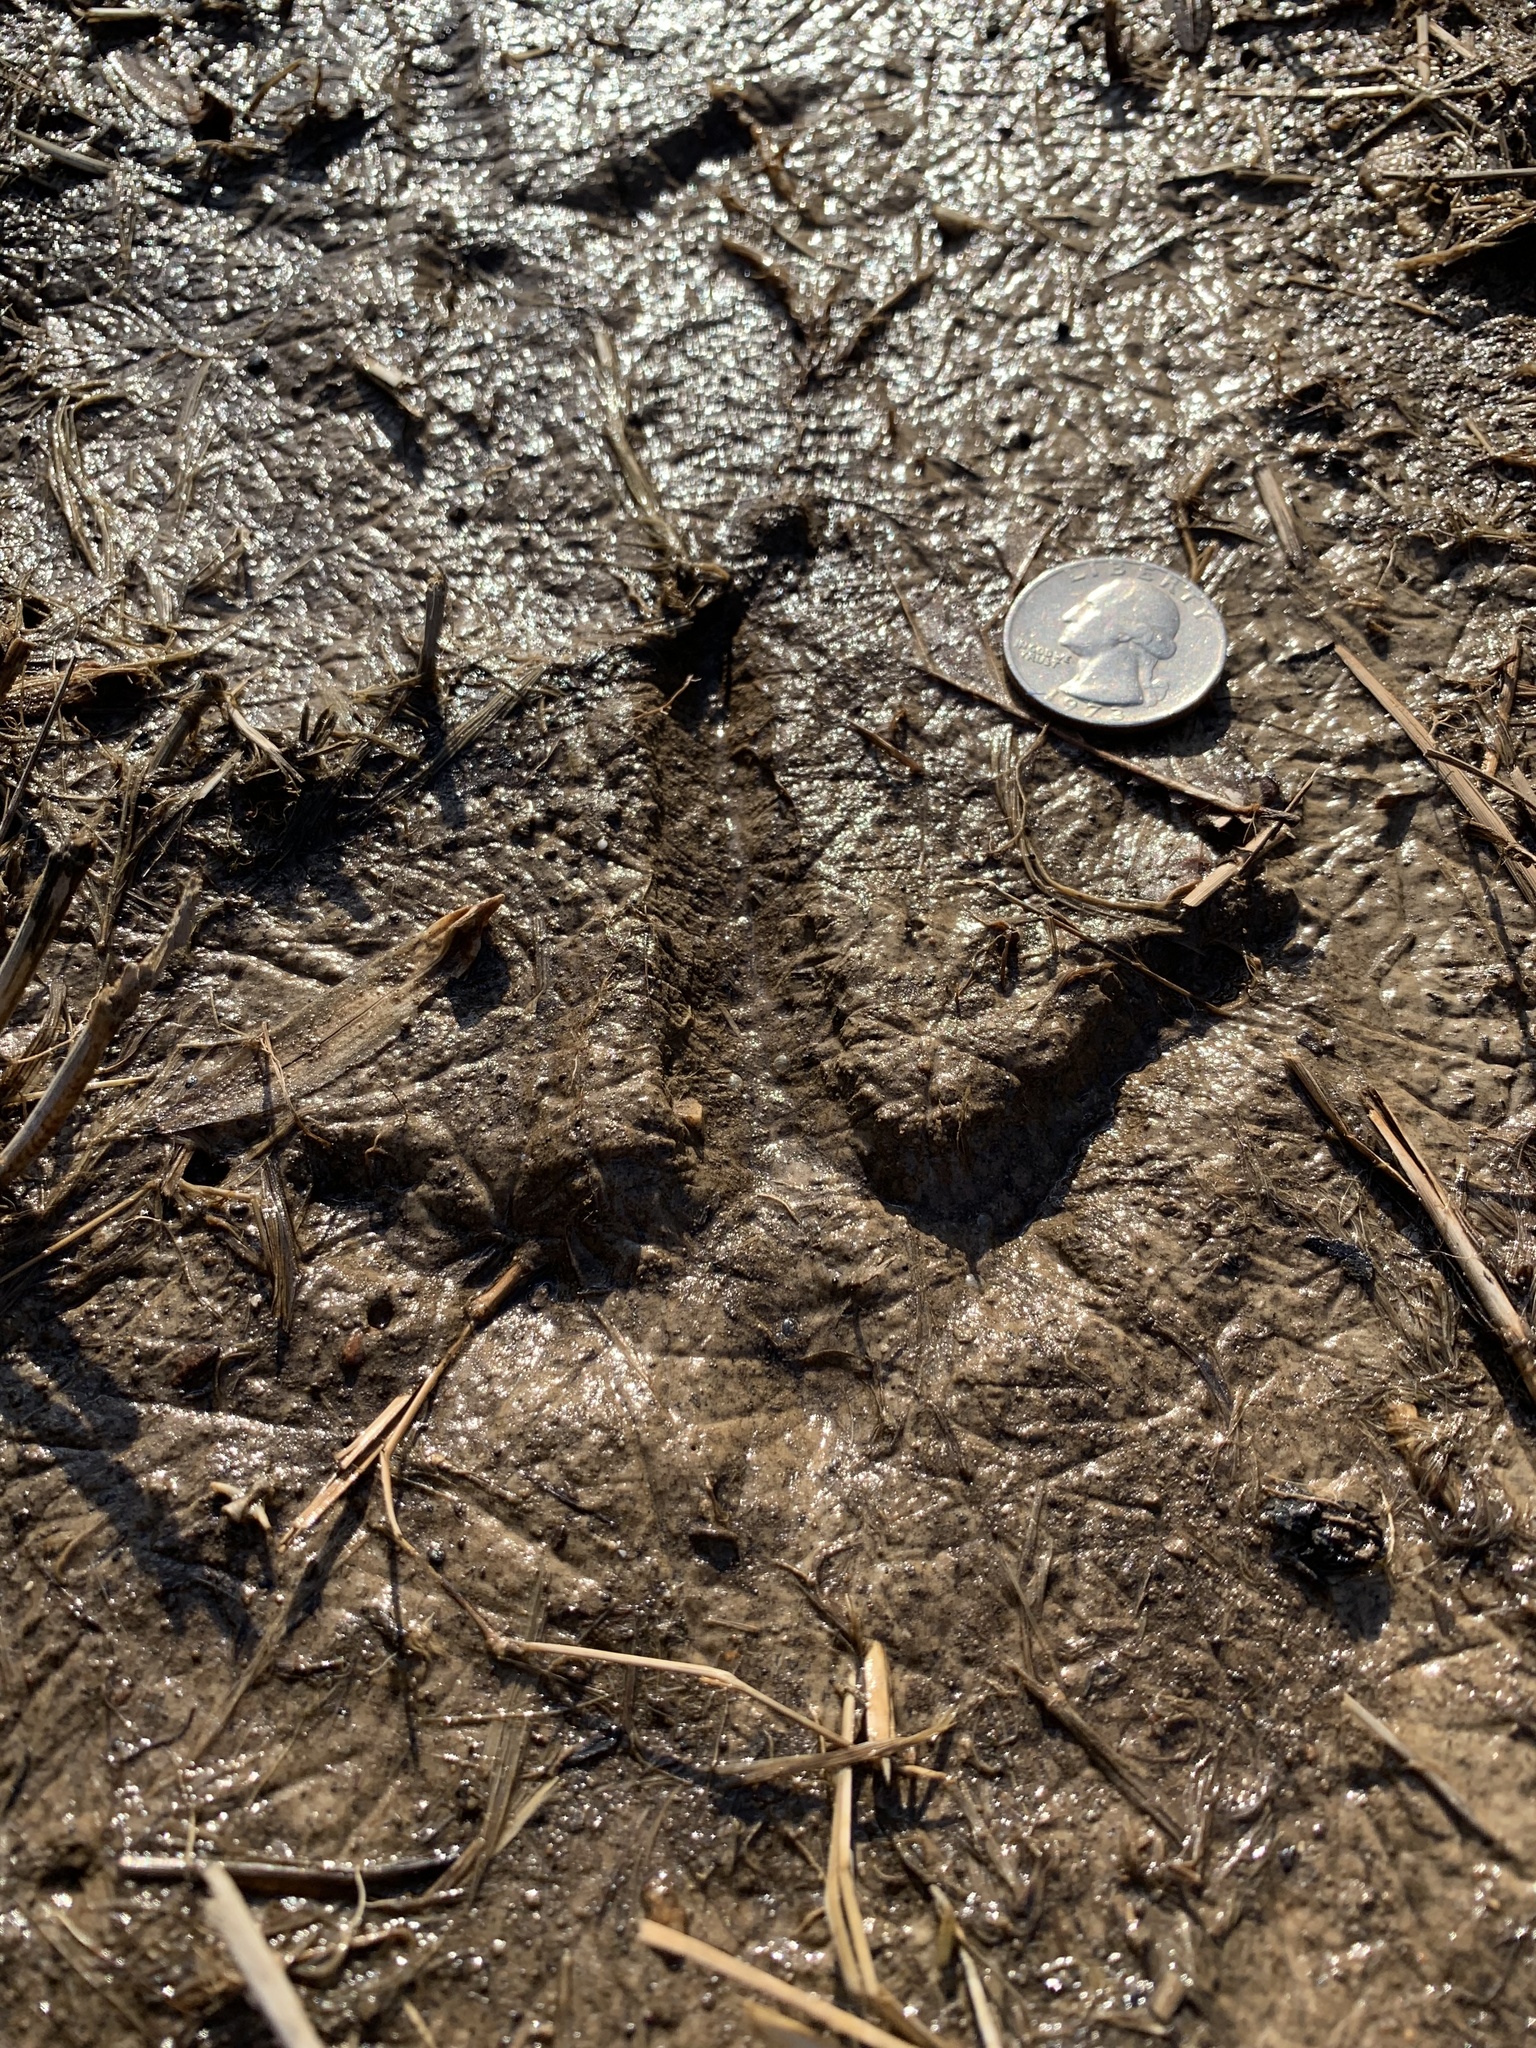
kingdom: Animalia
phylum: Chordata
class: Aves
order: Galliformes
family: Phasianidae
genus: Meleagris
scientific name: Meleagris gallopavo
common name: Wild turkey
